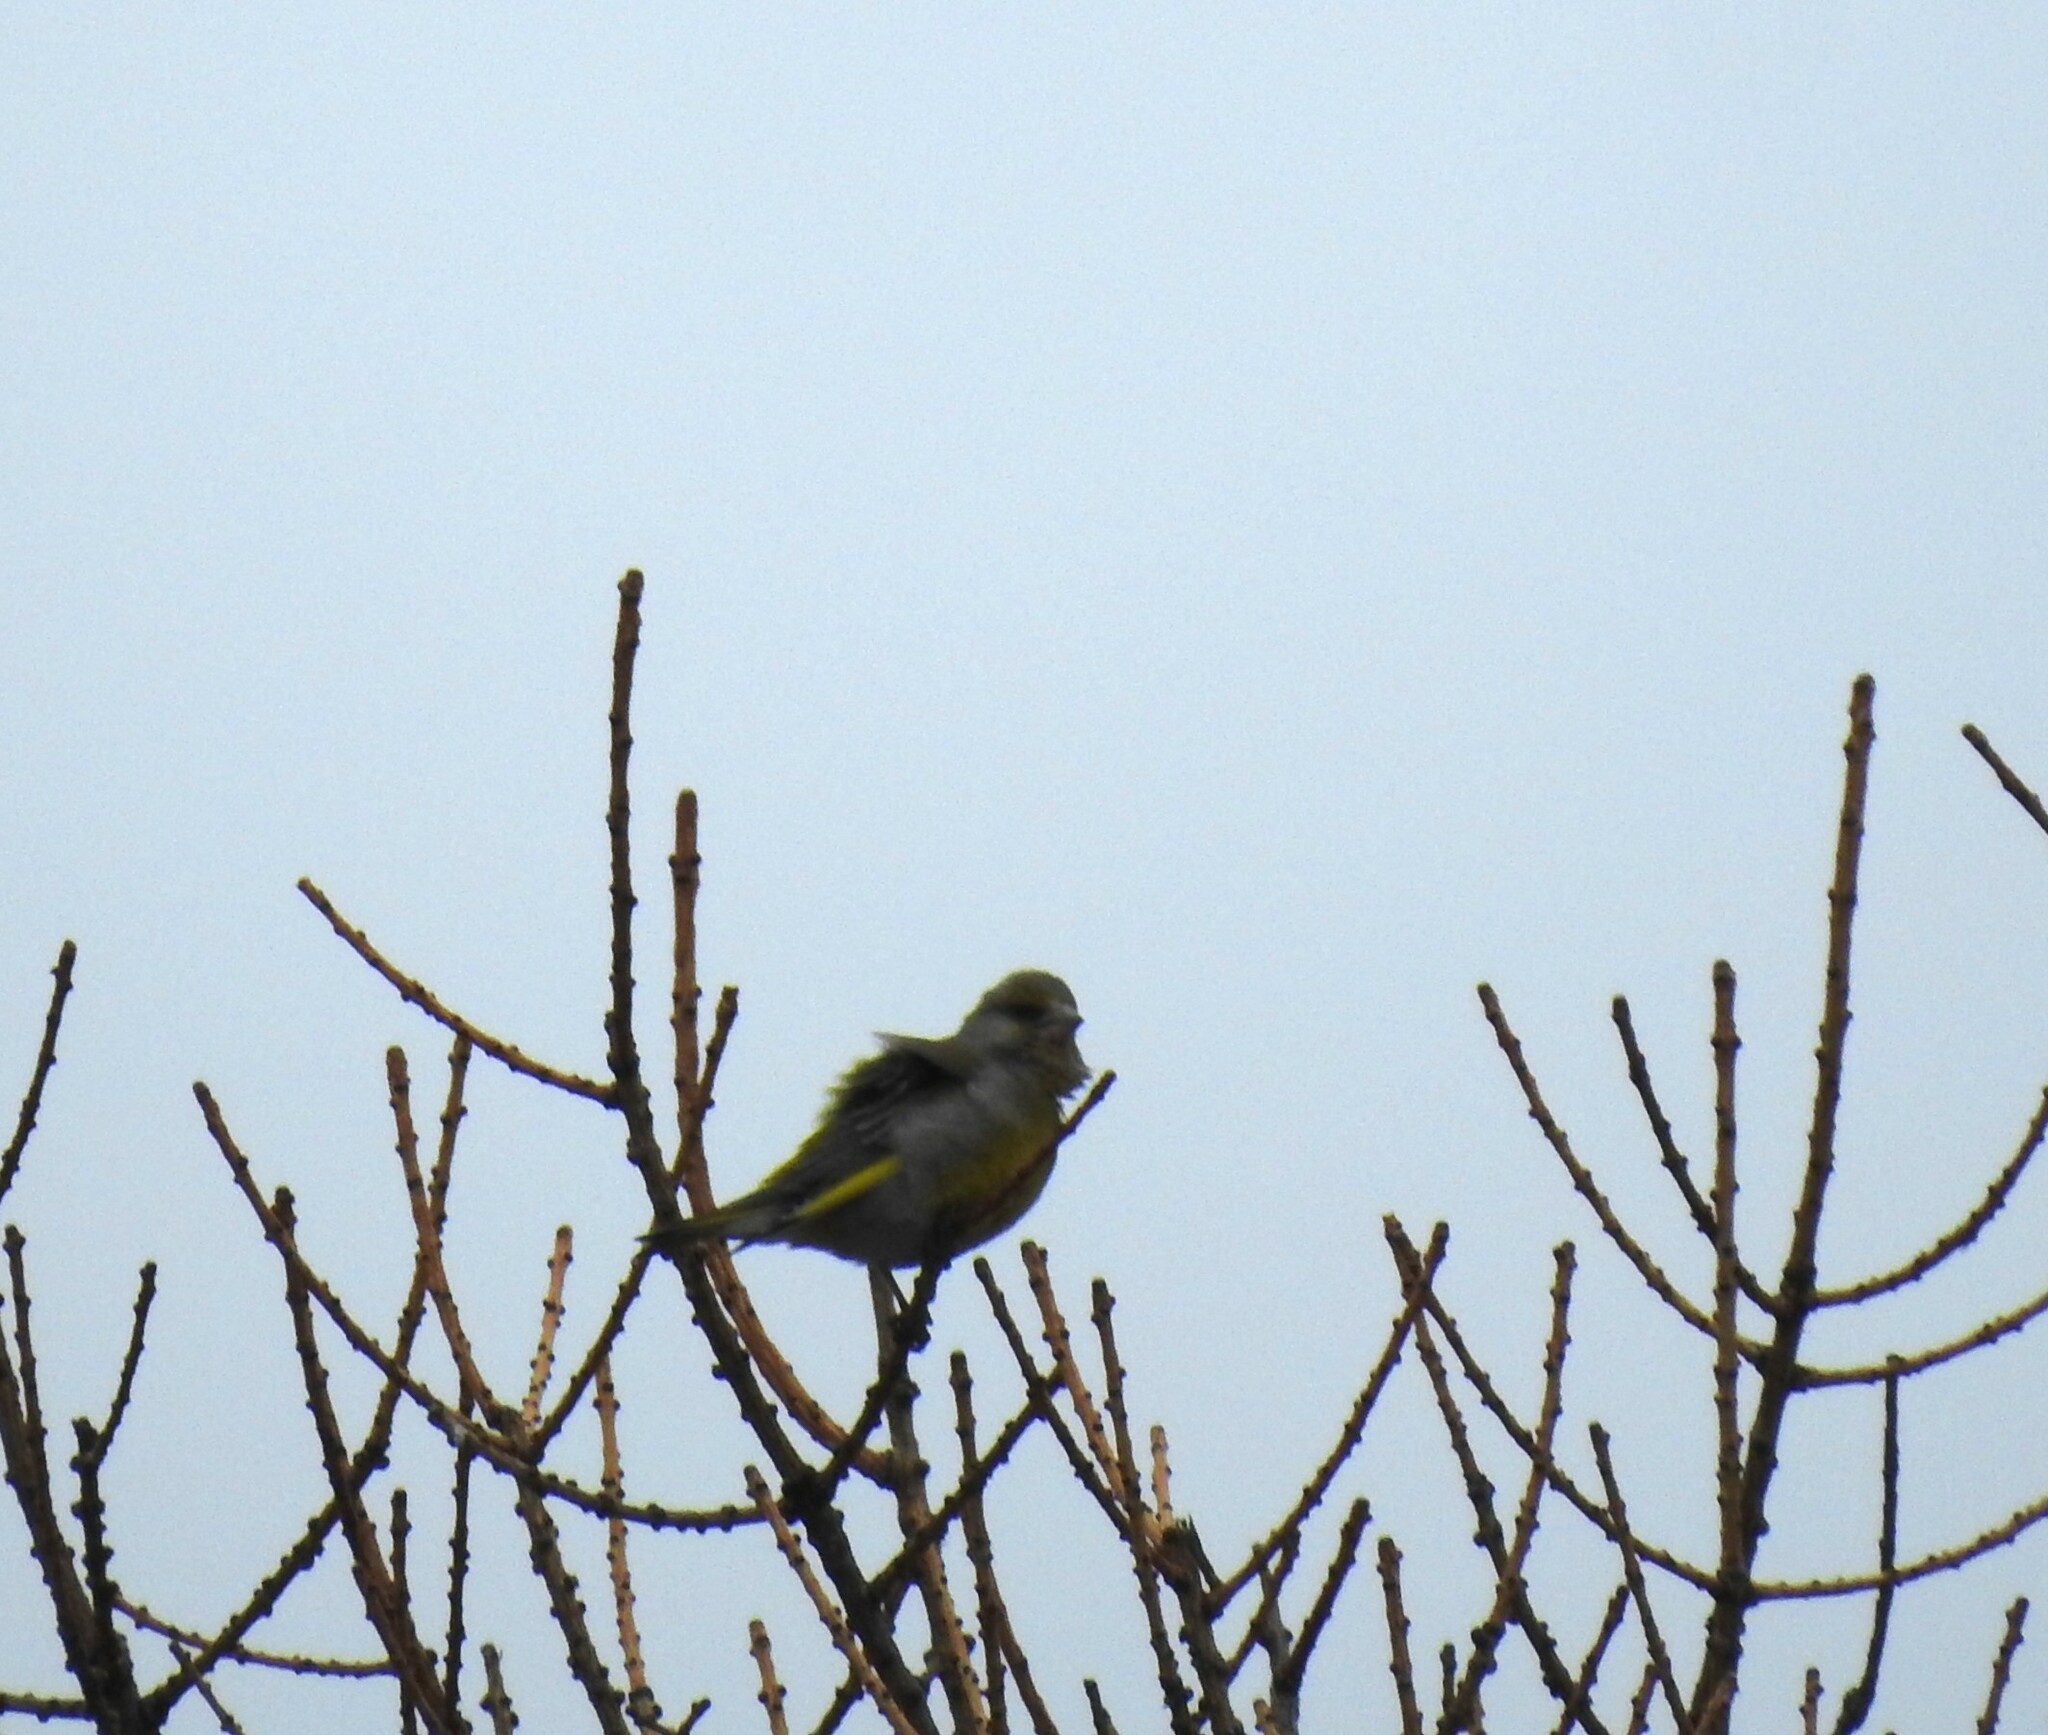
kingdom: Plantae
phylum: Tracheophyta
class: Liliopsida
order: Poales
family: Poaceae
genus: Chloris
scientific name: Chloris chloris
